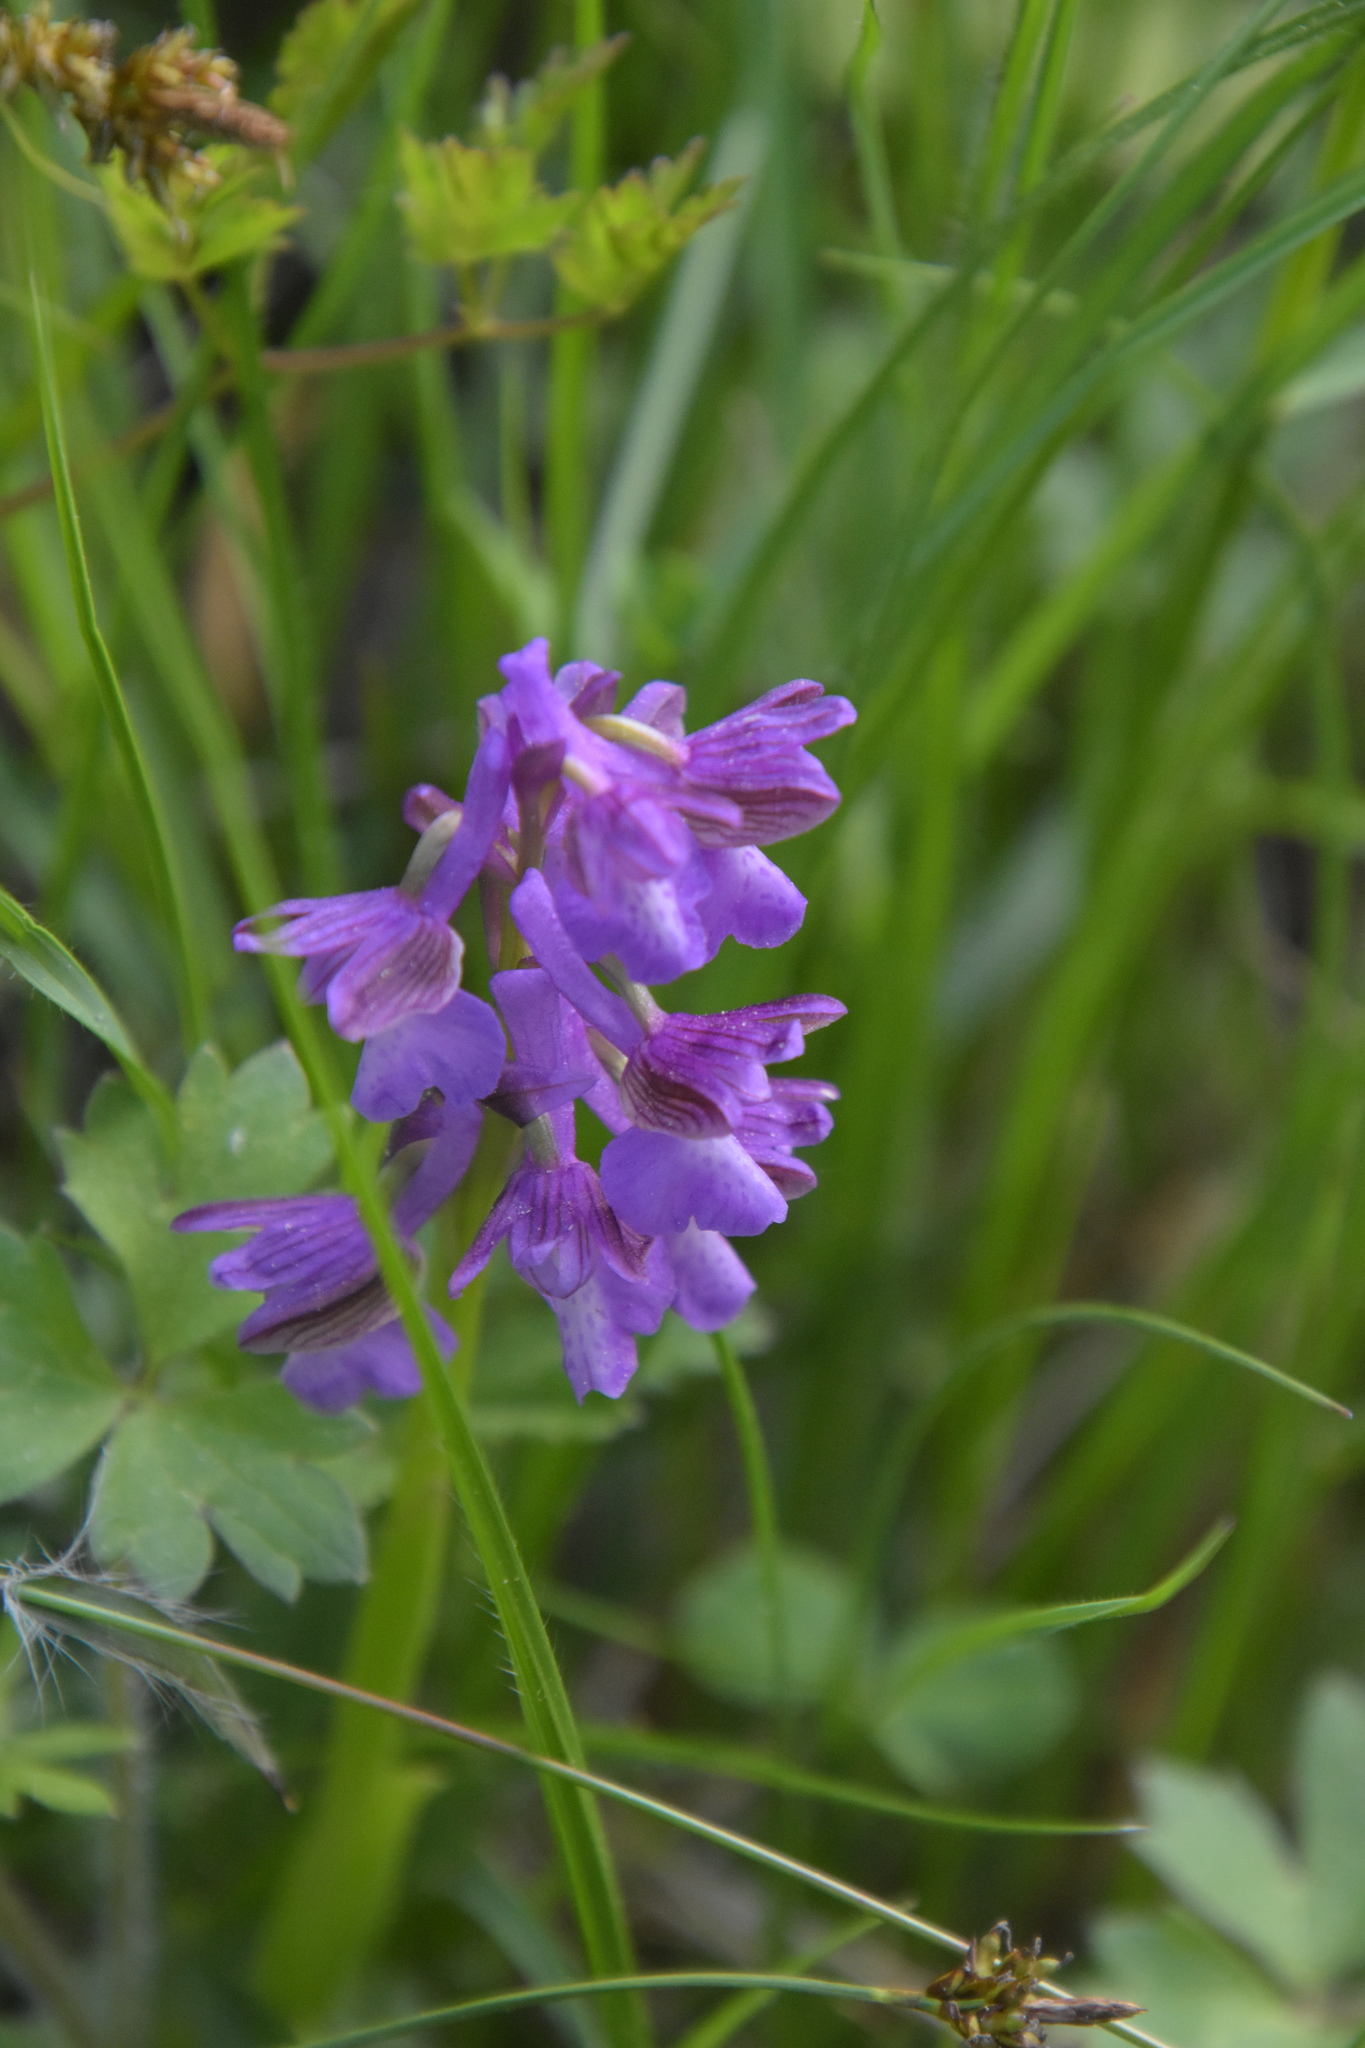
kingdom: Plantae
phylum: Tracheophyta
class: Liliopsida
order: Asparagales
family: Orchidaceae
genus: Anacamptis
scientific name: Anacamptis morio
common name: Green-winged orchid
